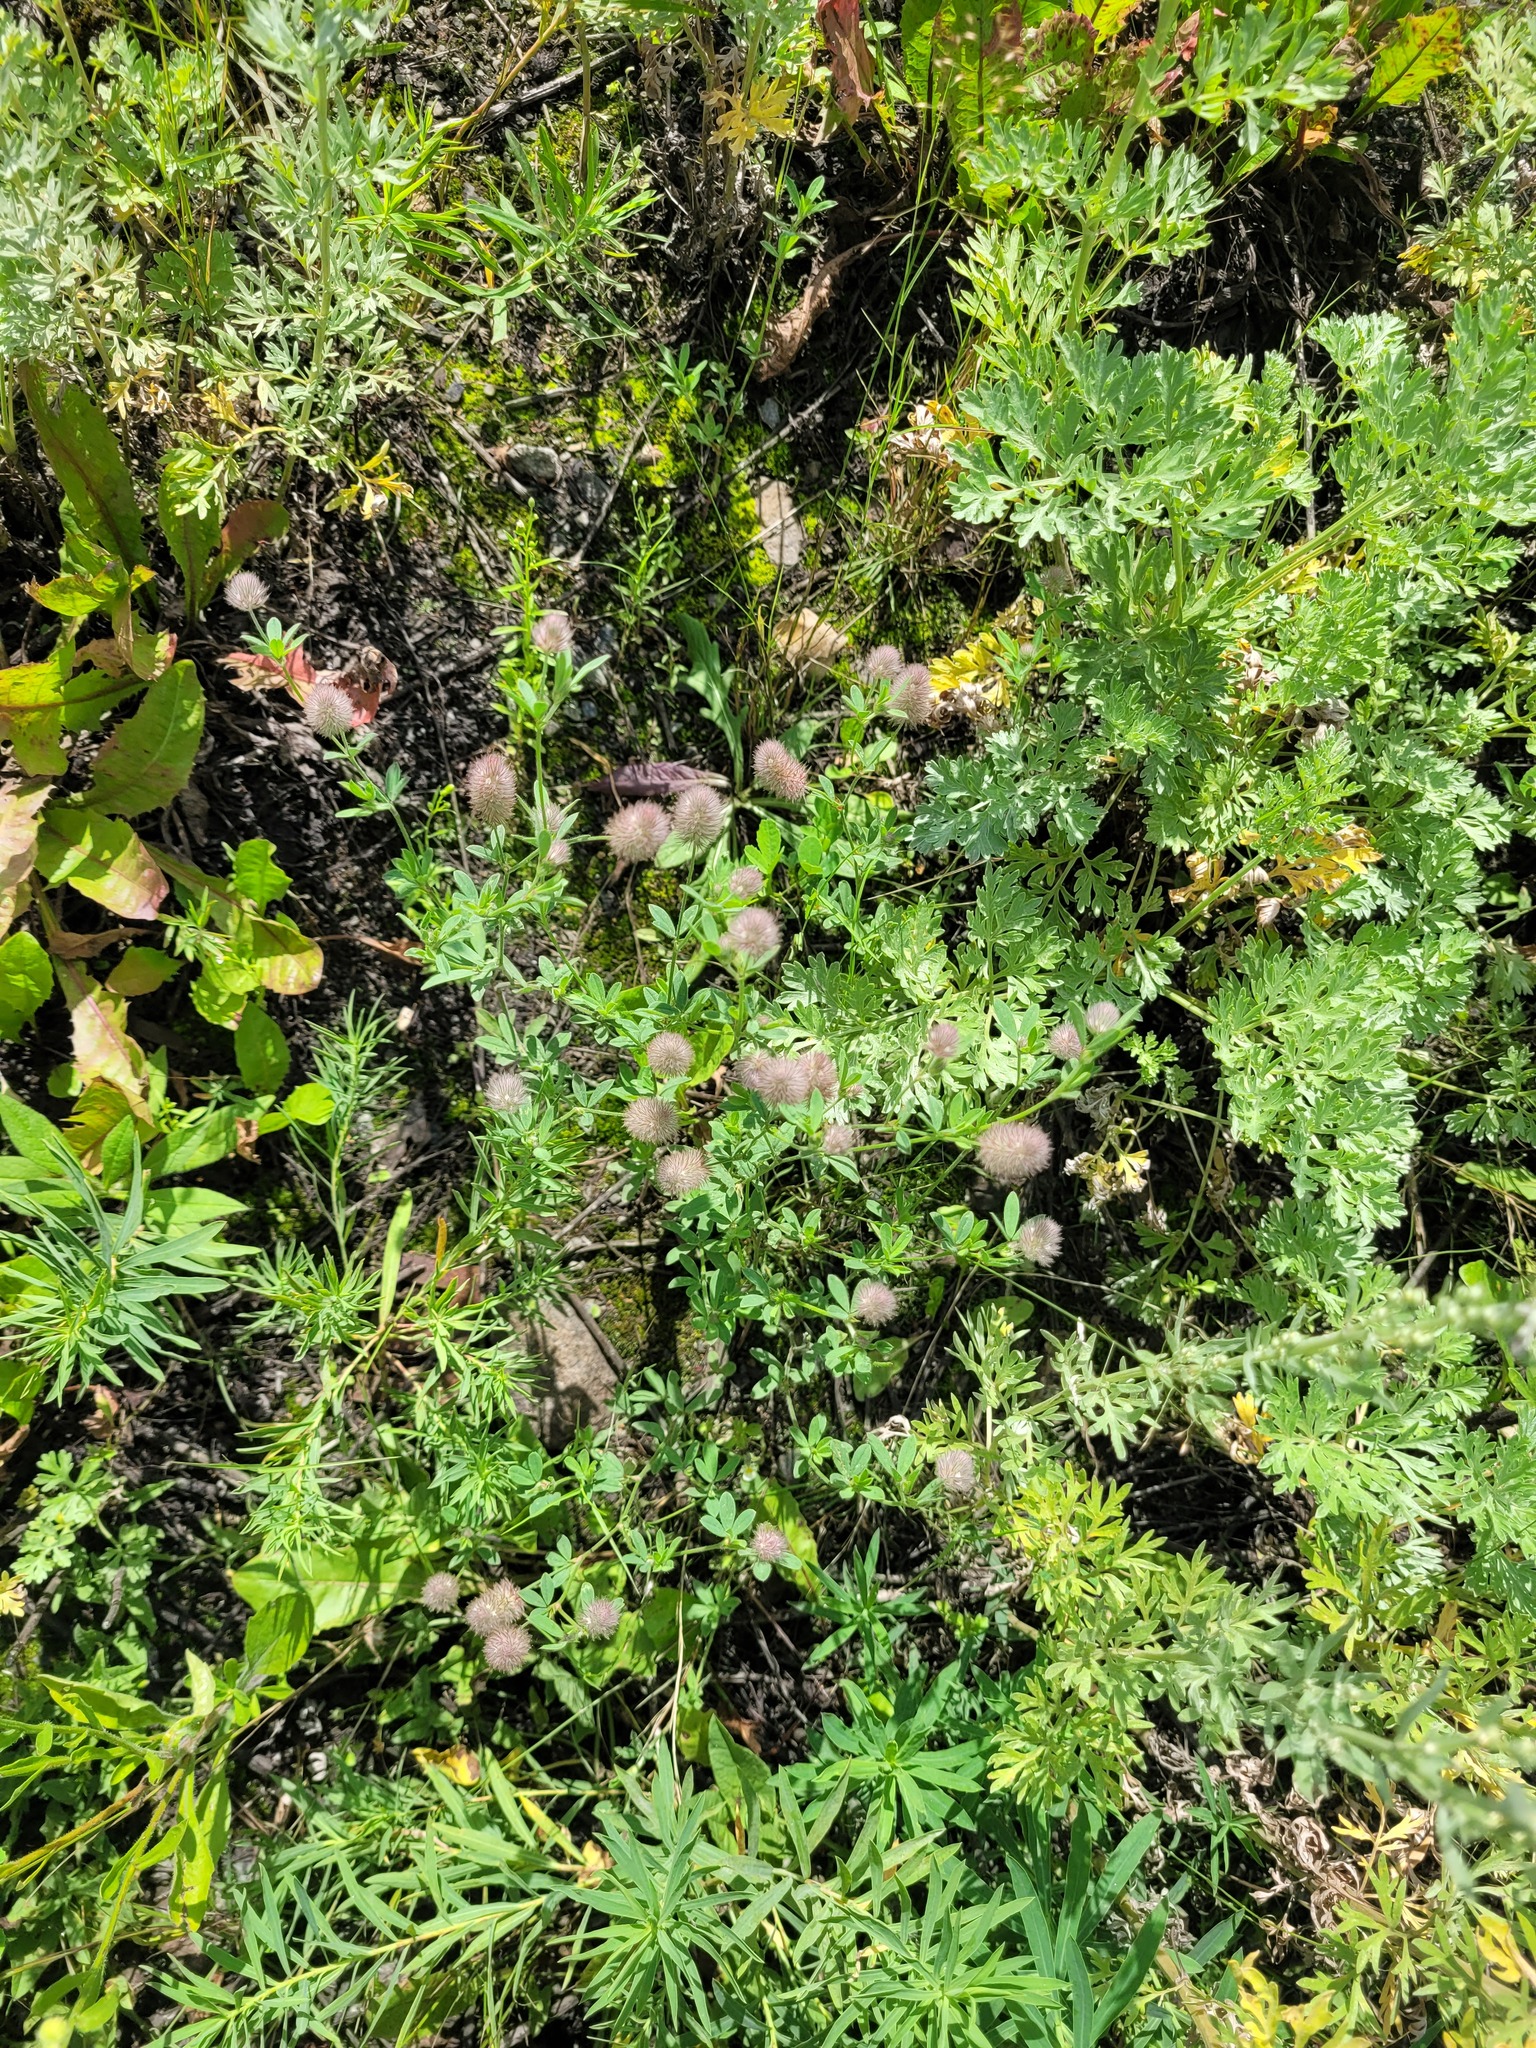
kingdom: Plantae
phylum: Tracheophyta
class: Magnoliopsida
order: Fabales
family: Fabaceae
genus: Trifolium
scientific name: Trifolium arvense
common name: Hare's-foot clover
